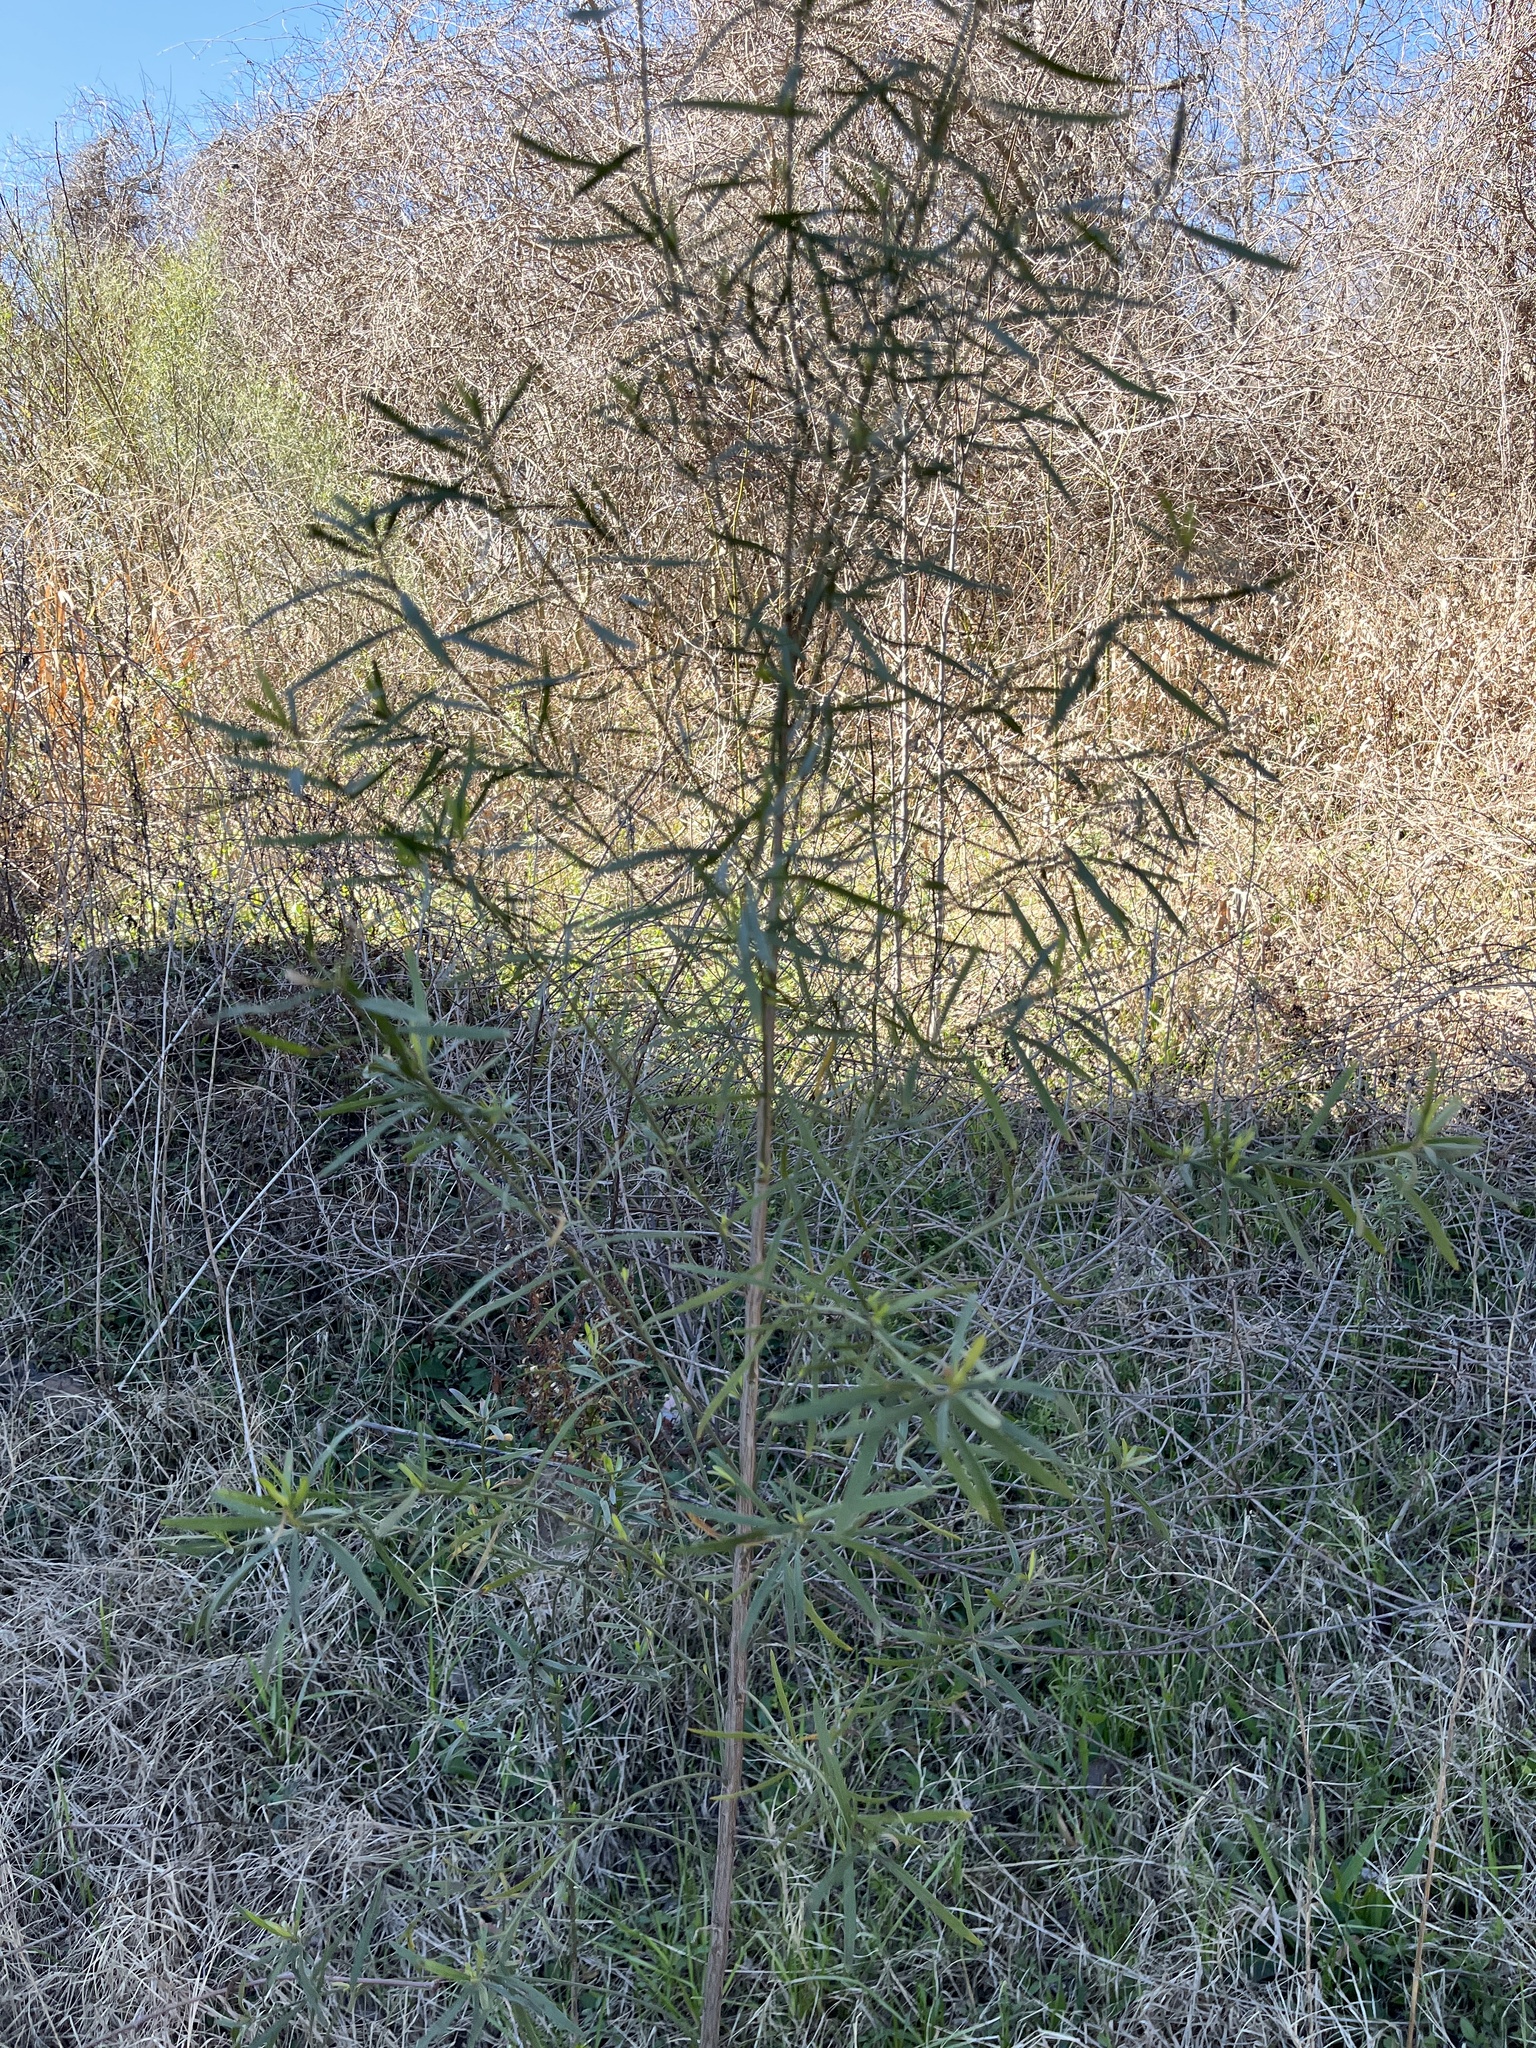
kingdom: Plantae
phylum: Tracheophyta
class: Magnoliopsida
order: Malpighiales
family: Euphorbiaceae
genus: Stillingia
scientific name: Stillingia sylvatica
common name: Queen's-delight
